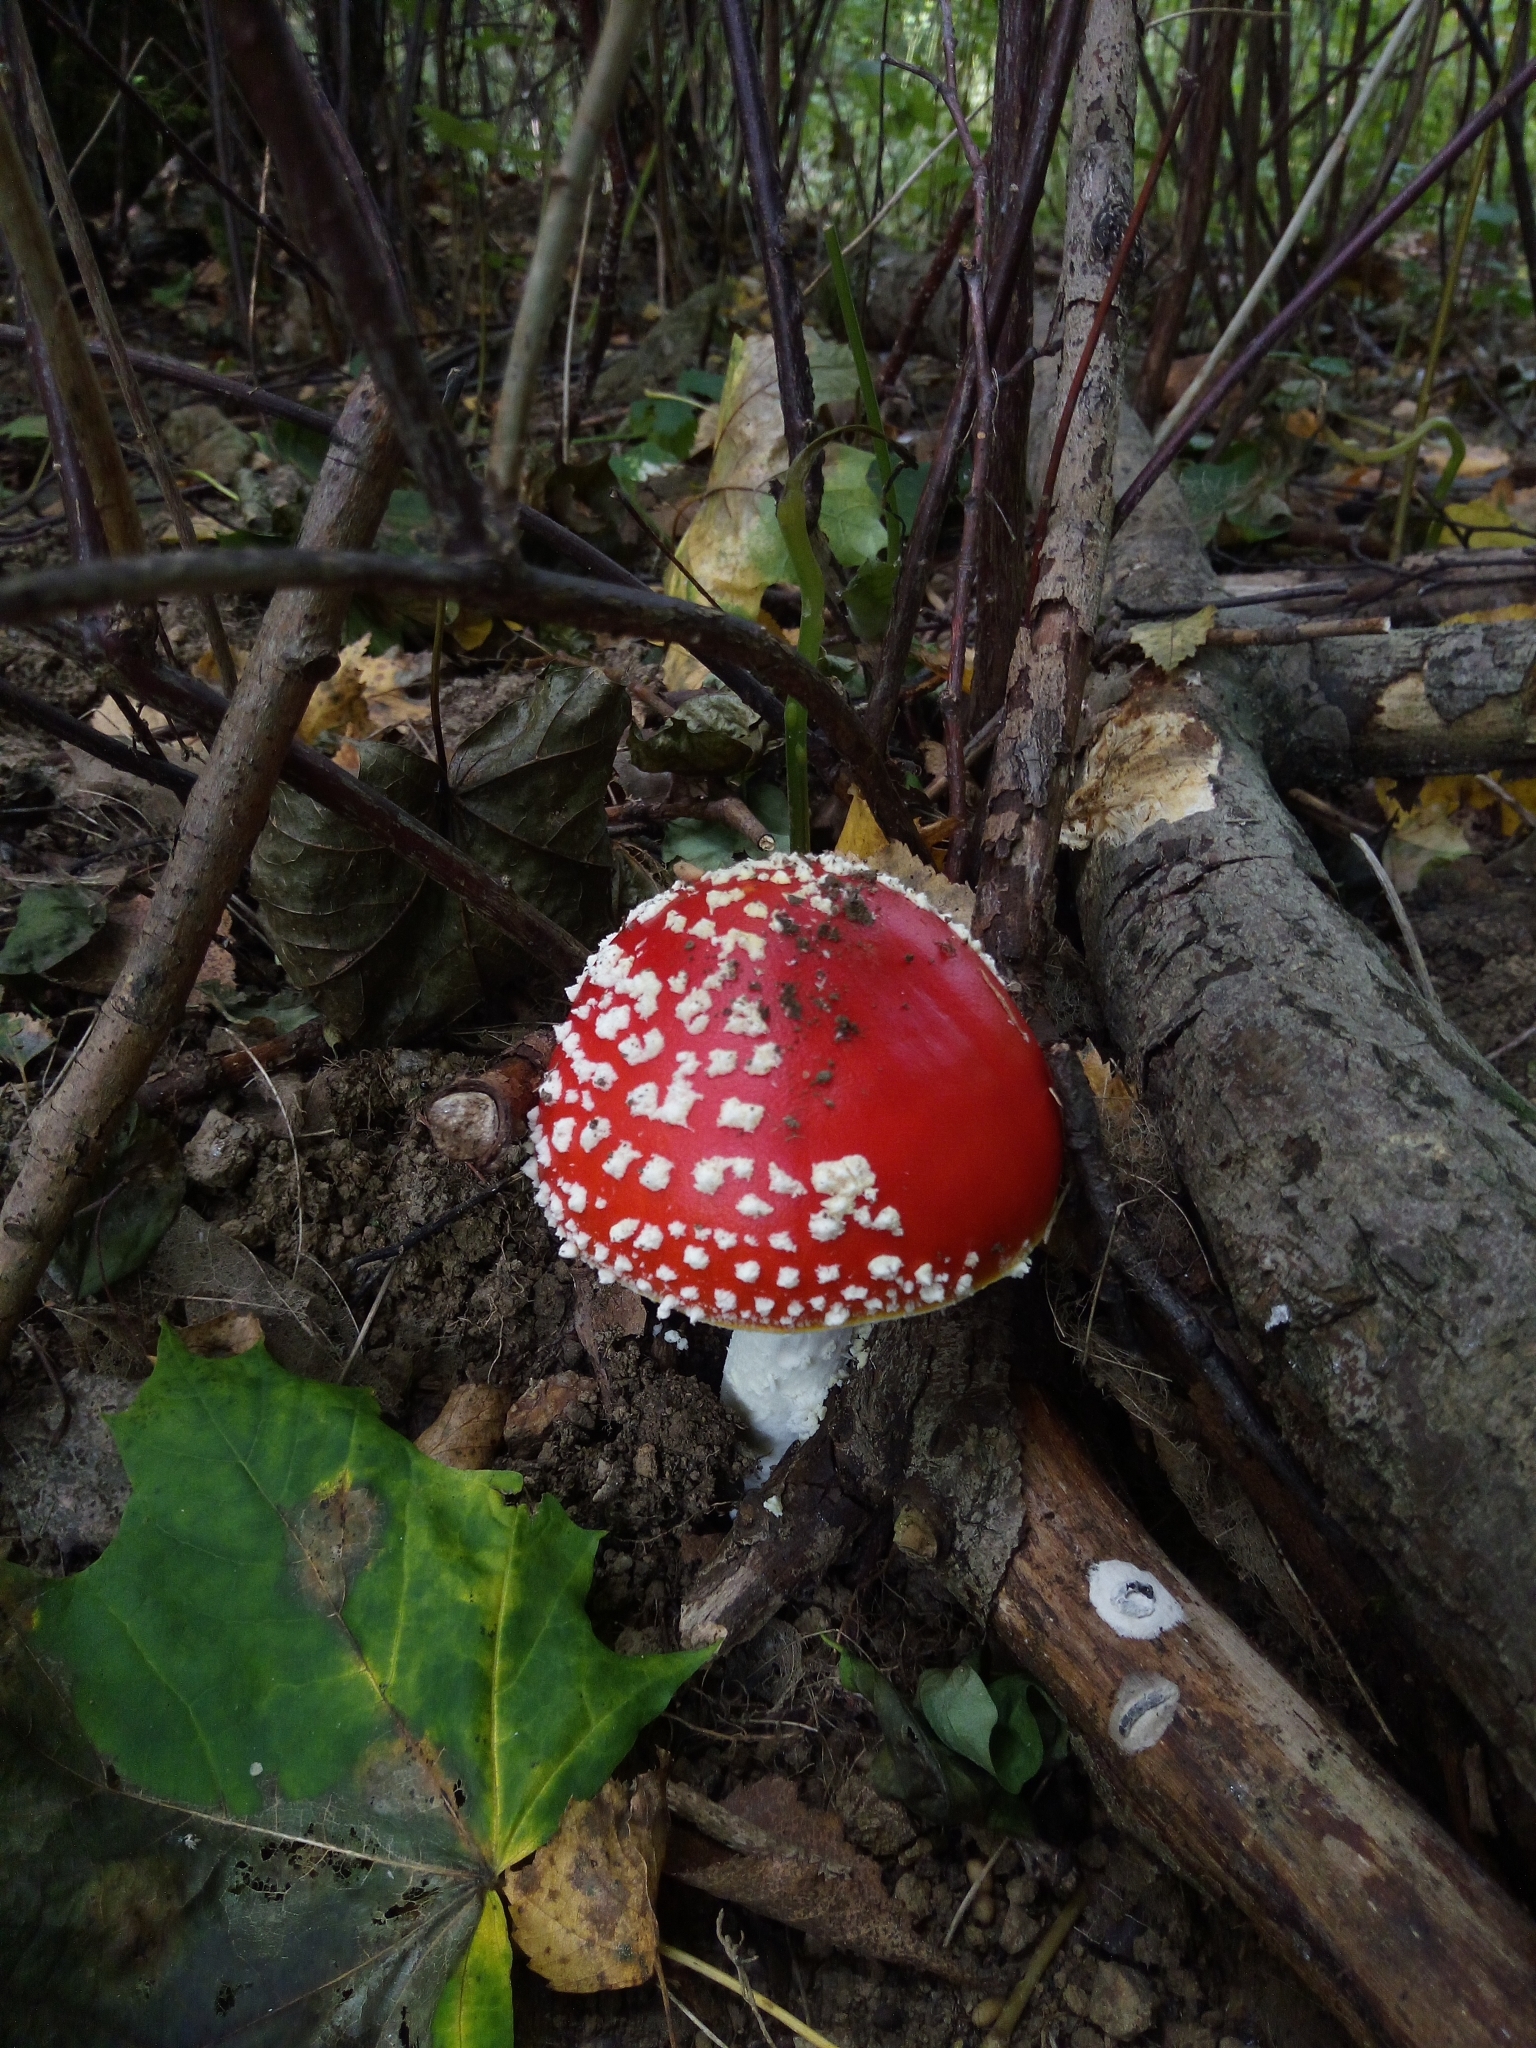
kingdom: Fungi
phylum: Basidiomycota
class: Agaricomycetes
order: Agaricales
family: Amanitaceae
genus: Amanita
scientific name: Amanita muscaria
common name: Fly agaric
